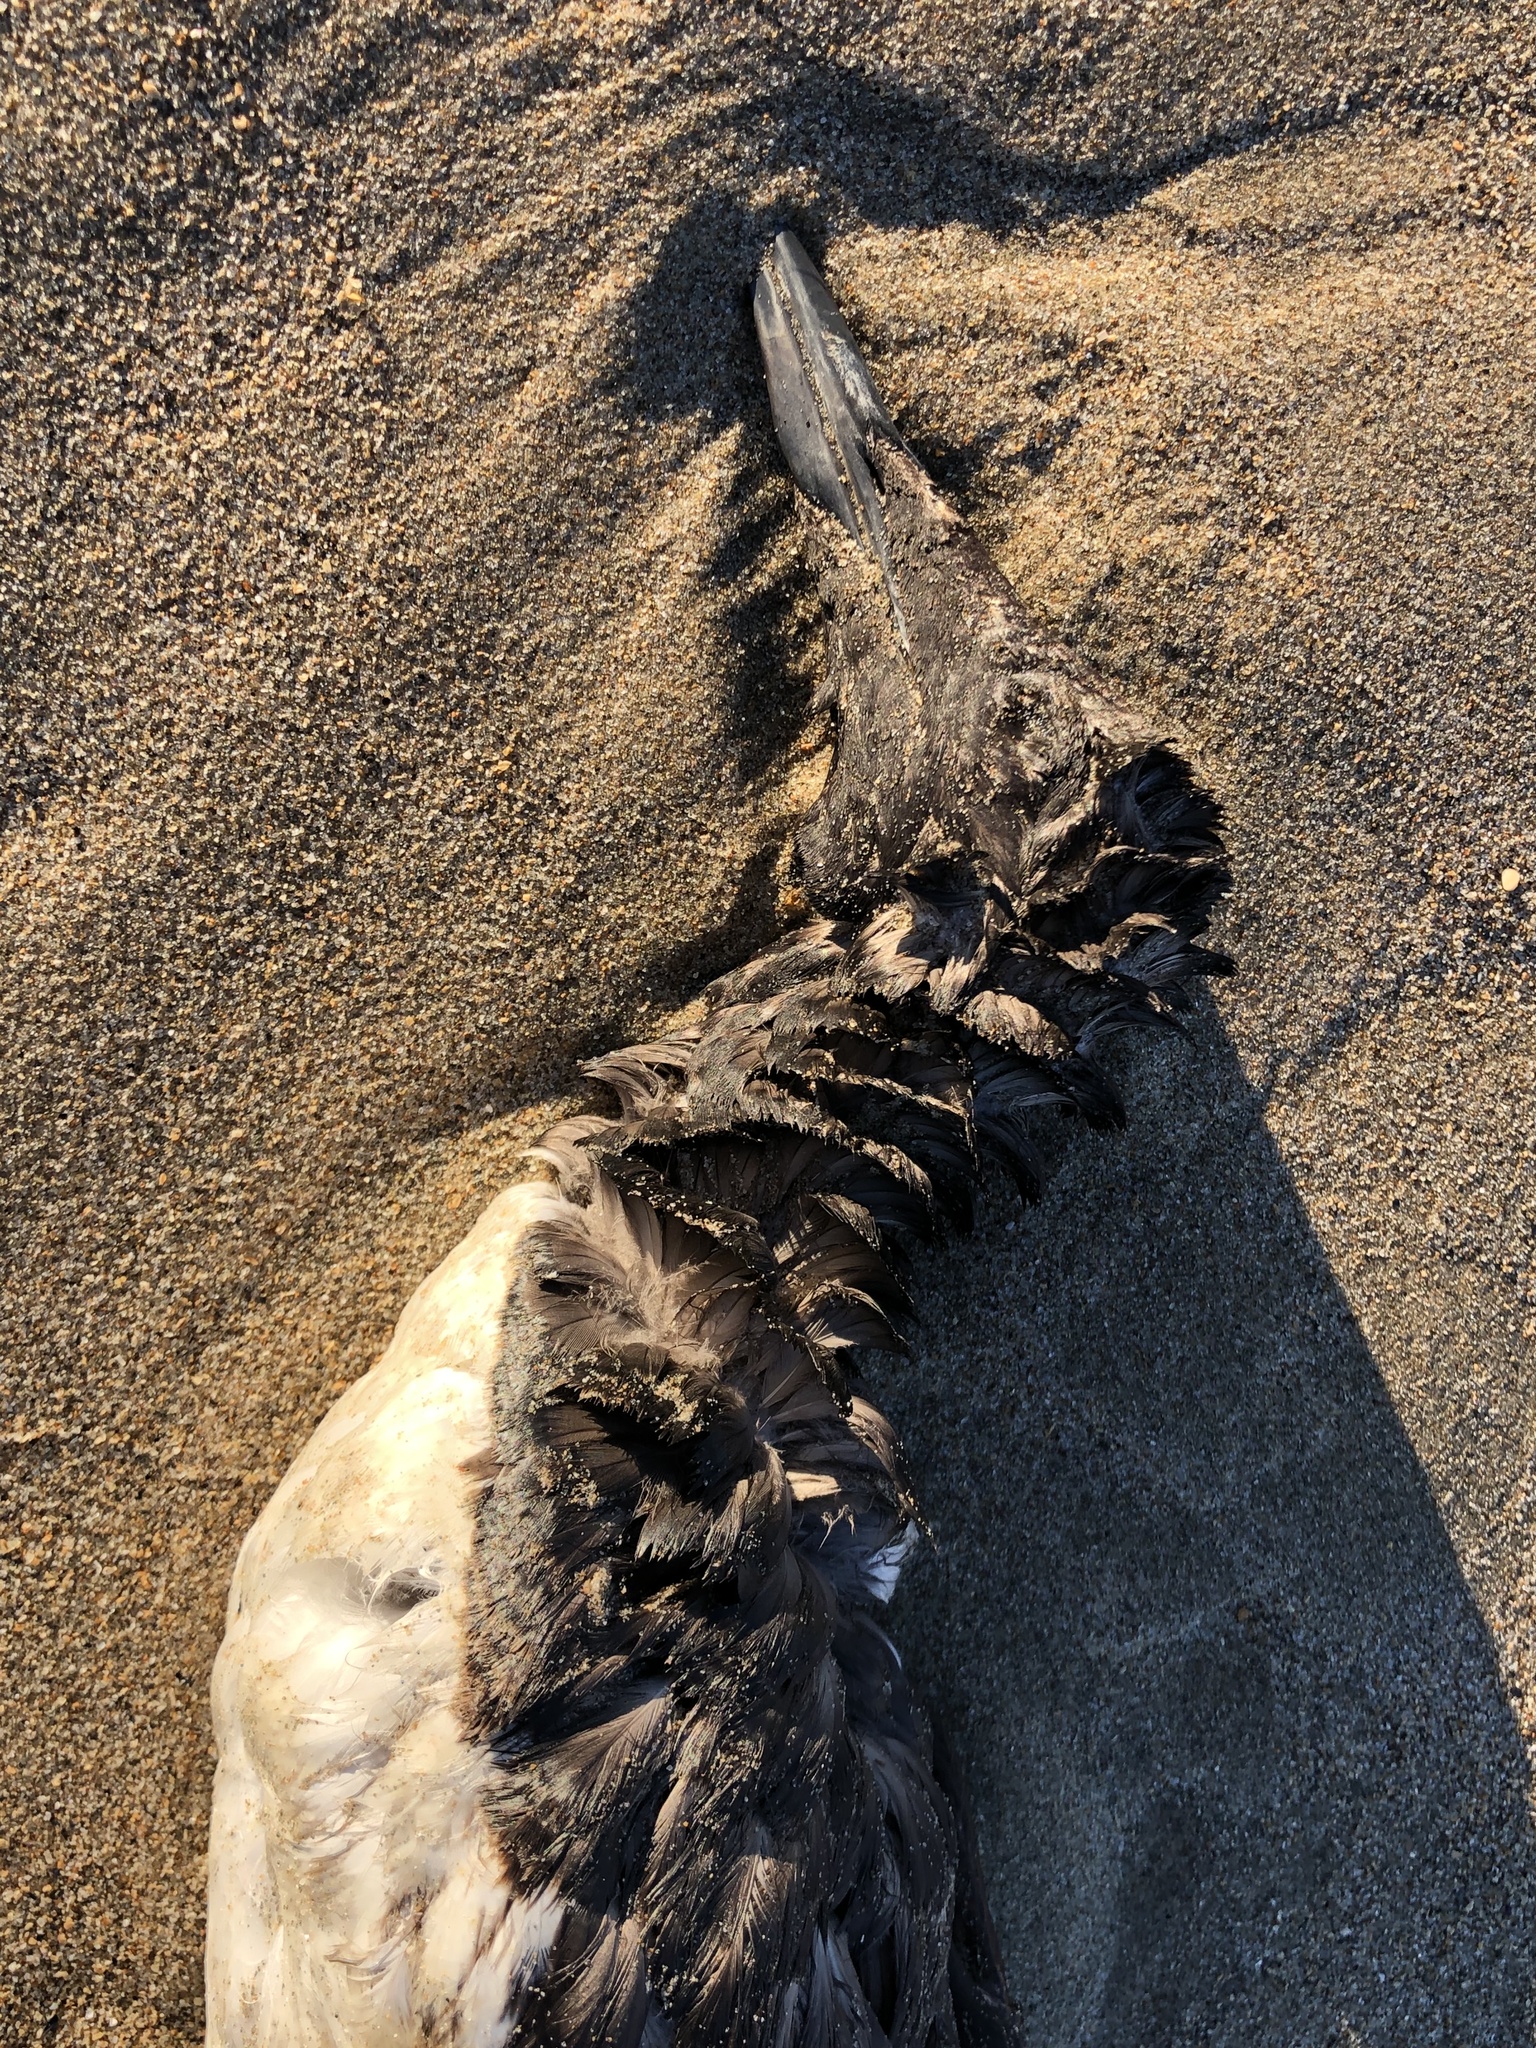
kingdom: Animalia
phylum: Chordata
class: Aves
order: Charadriiformes
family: Alcidae
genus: Uria
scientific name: Uria aalge
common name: Common murre
